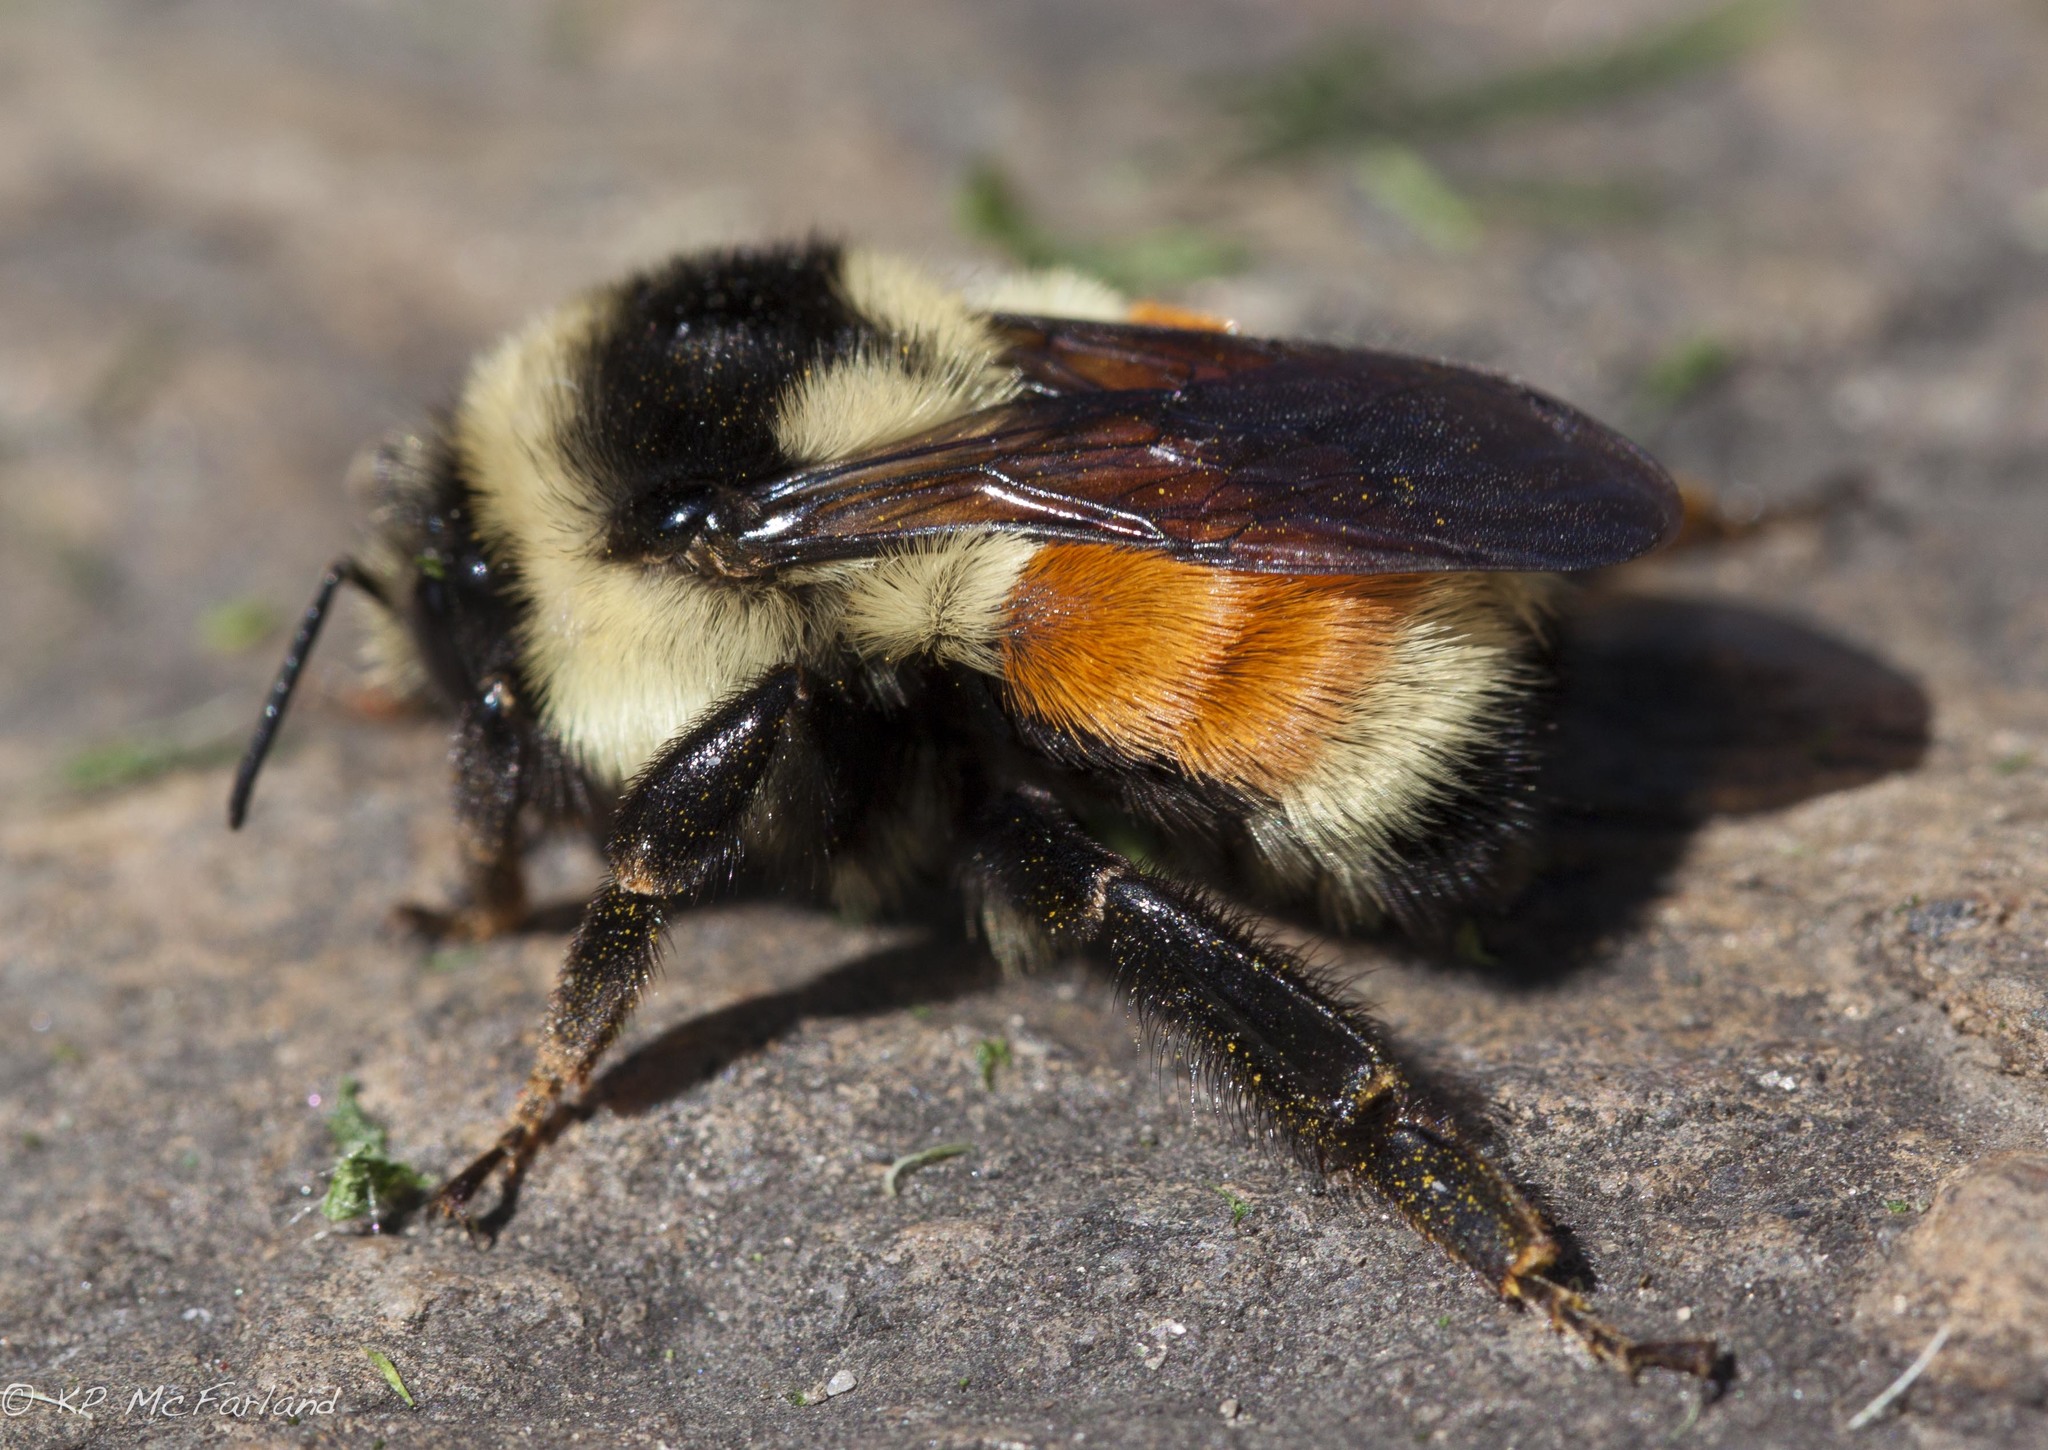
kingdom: Animalia
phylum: Arthropoda
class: Insecta
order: Hymenoptera
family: Apidae
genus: Bombus
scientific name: Bombus ternarius
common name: Tri-colored bumble bee
